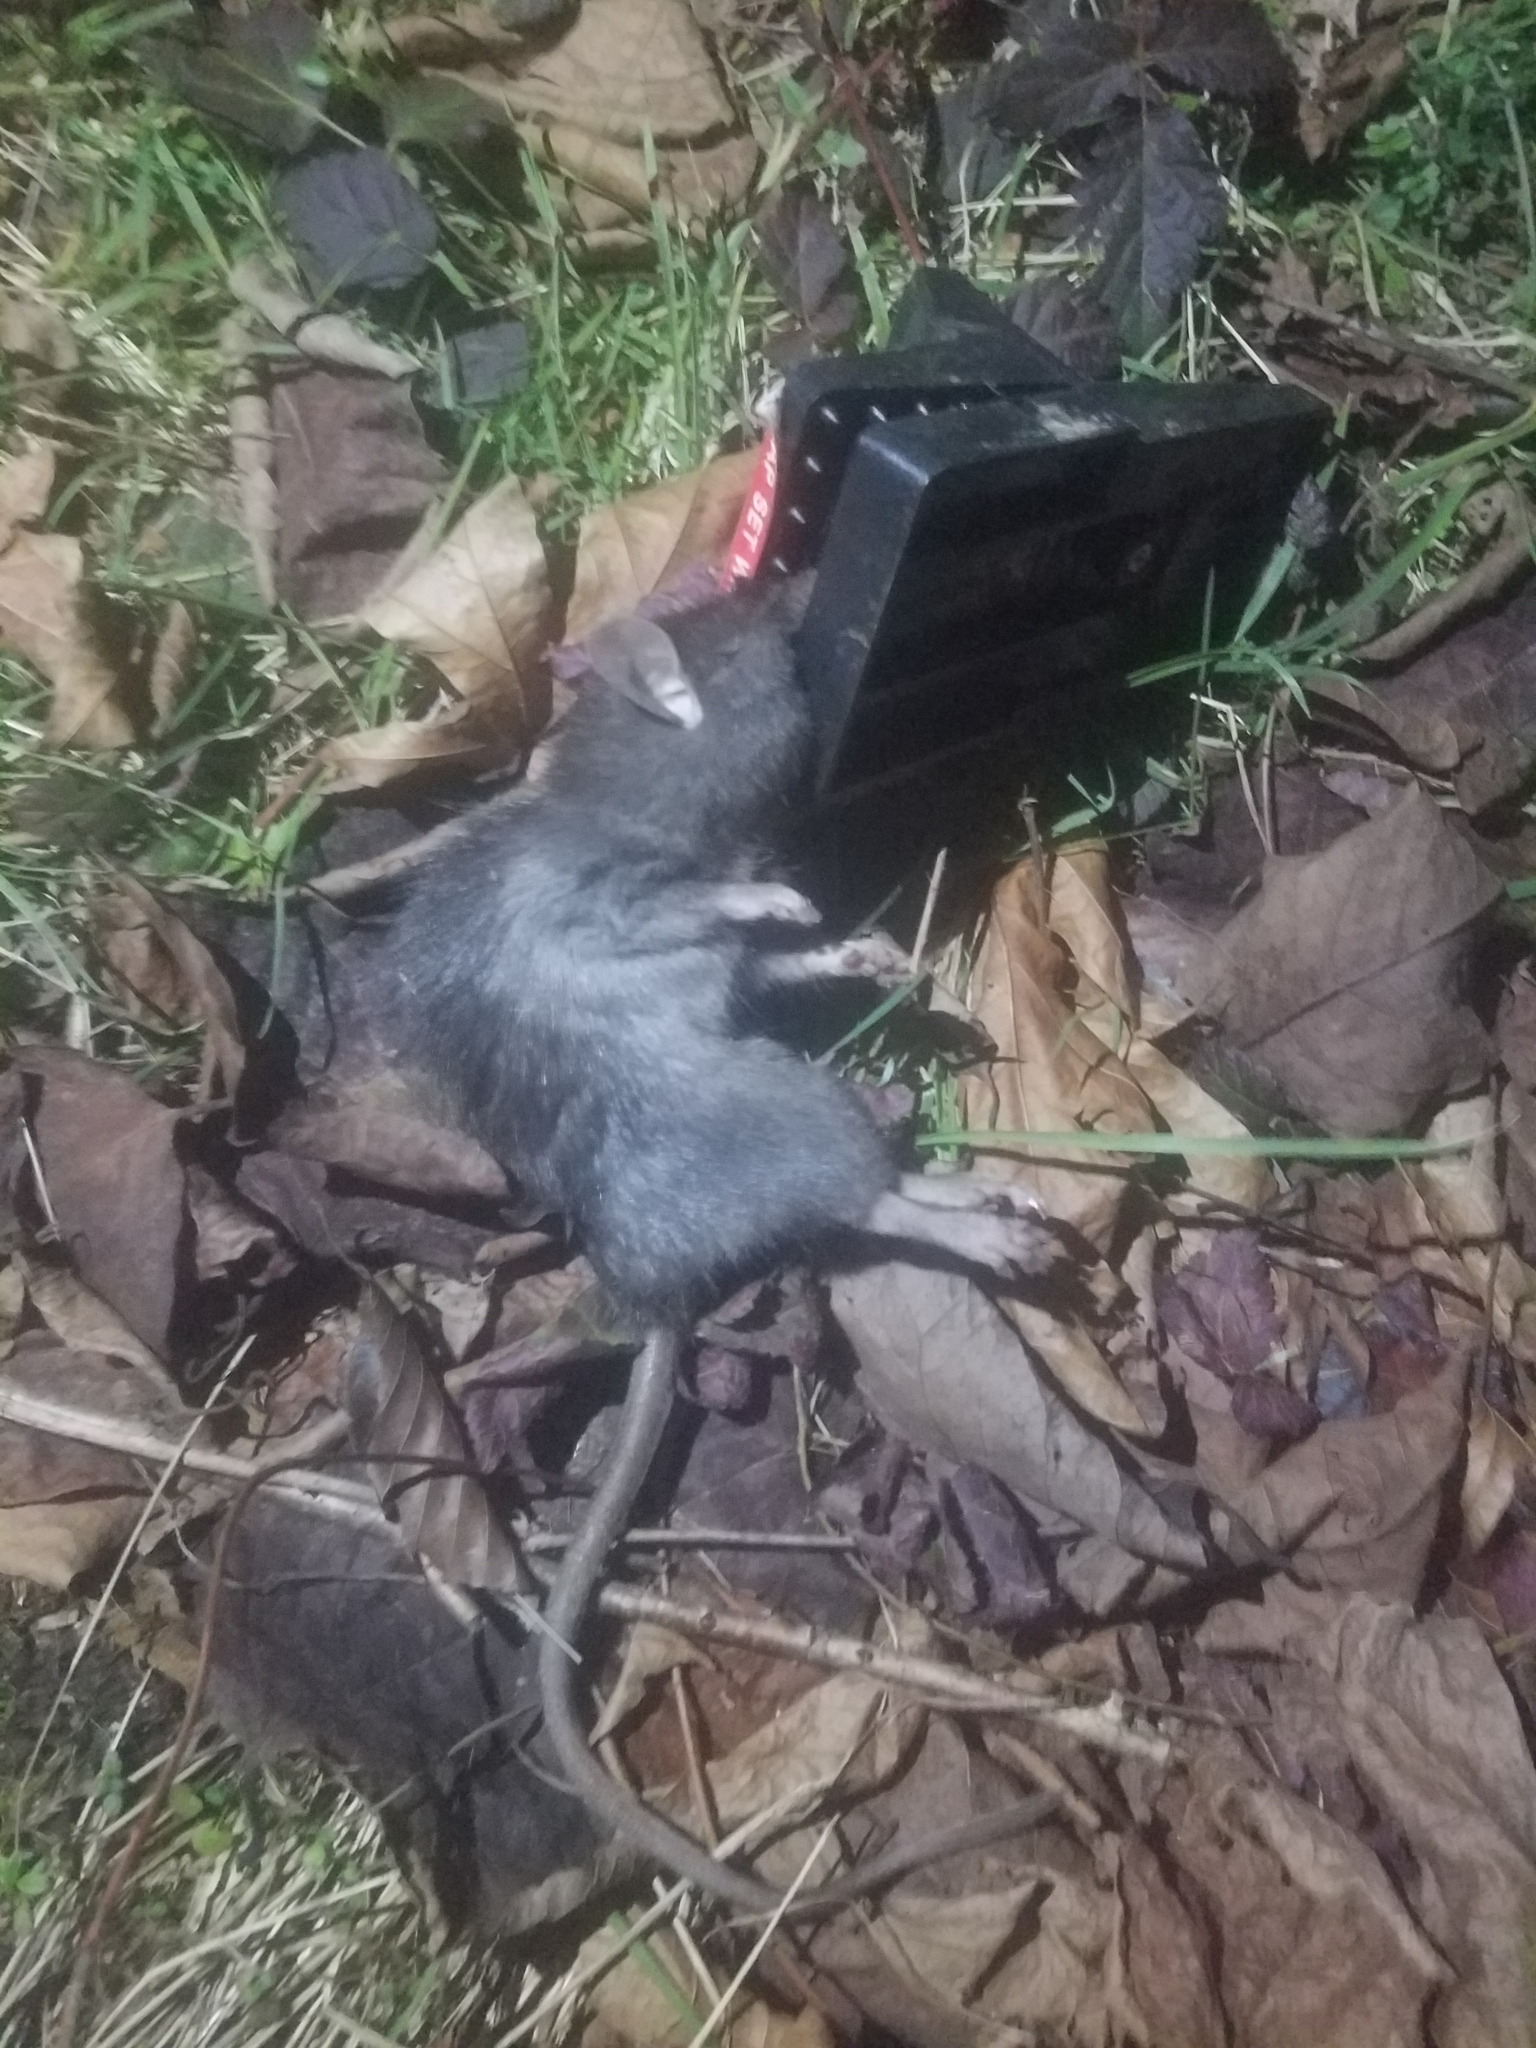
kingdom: Animalia
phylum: Chordata
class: Mammalia
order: Rodentia
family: Muridae
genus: Rattus
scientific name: Rattus rattus
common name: Black rat
